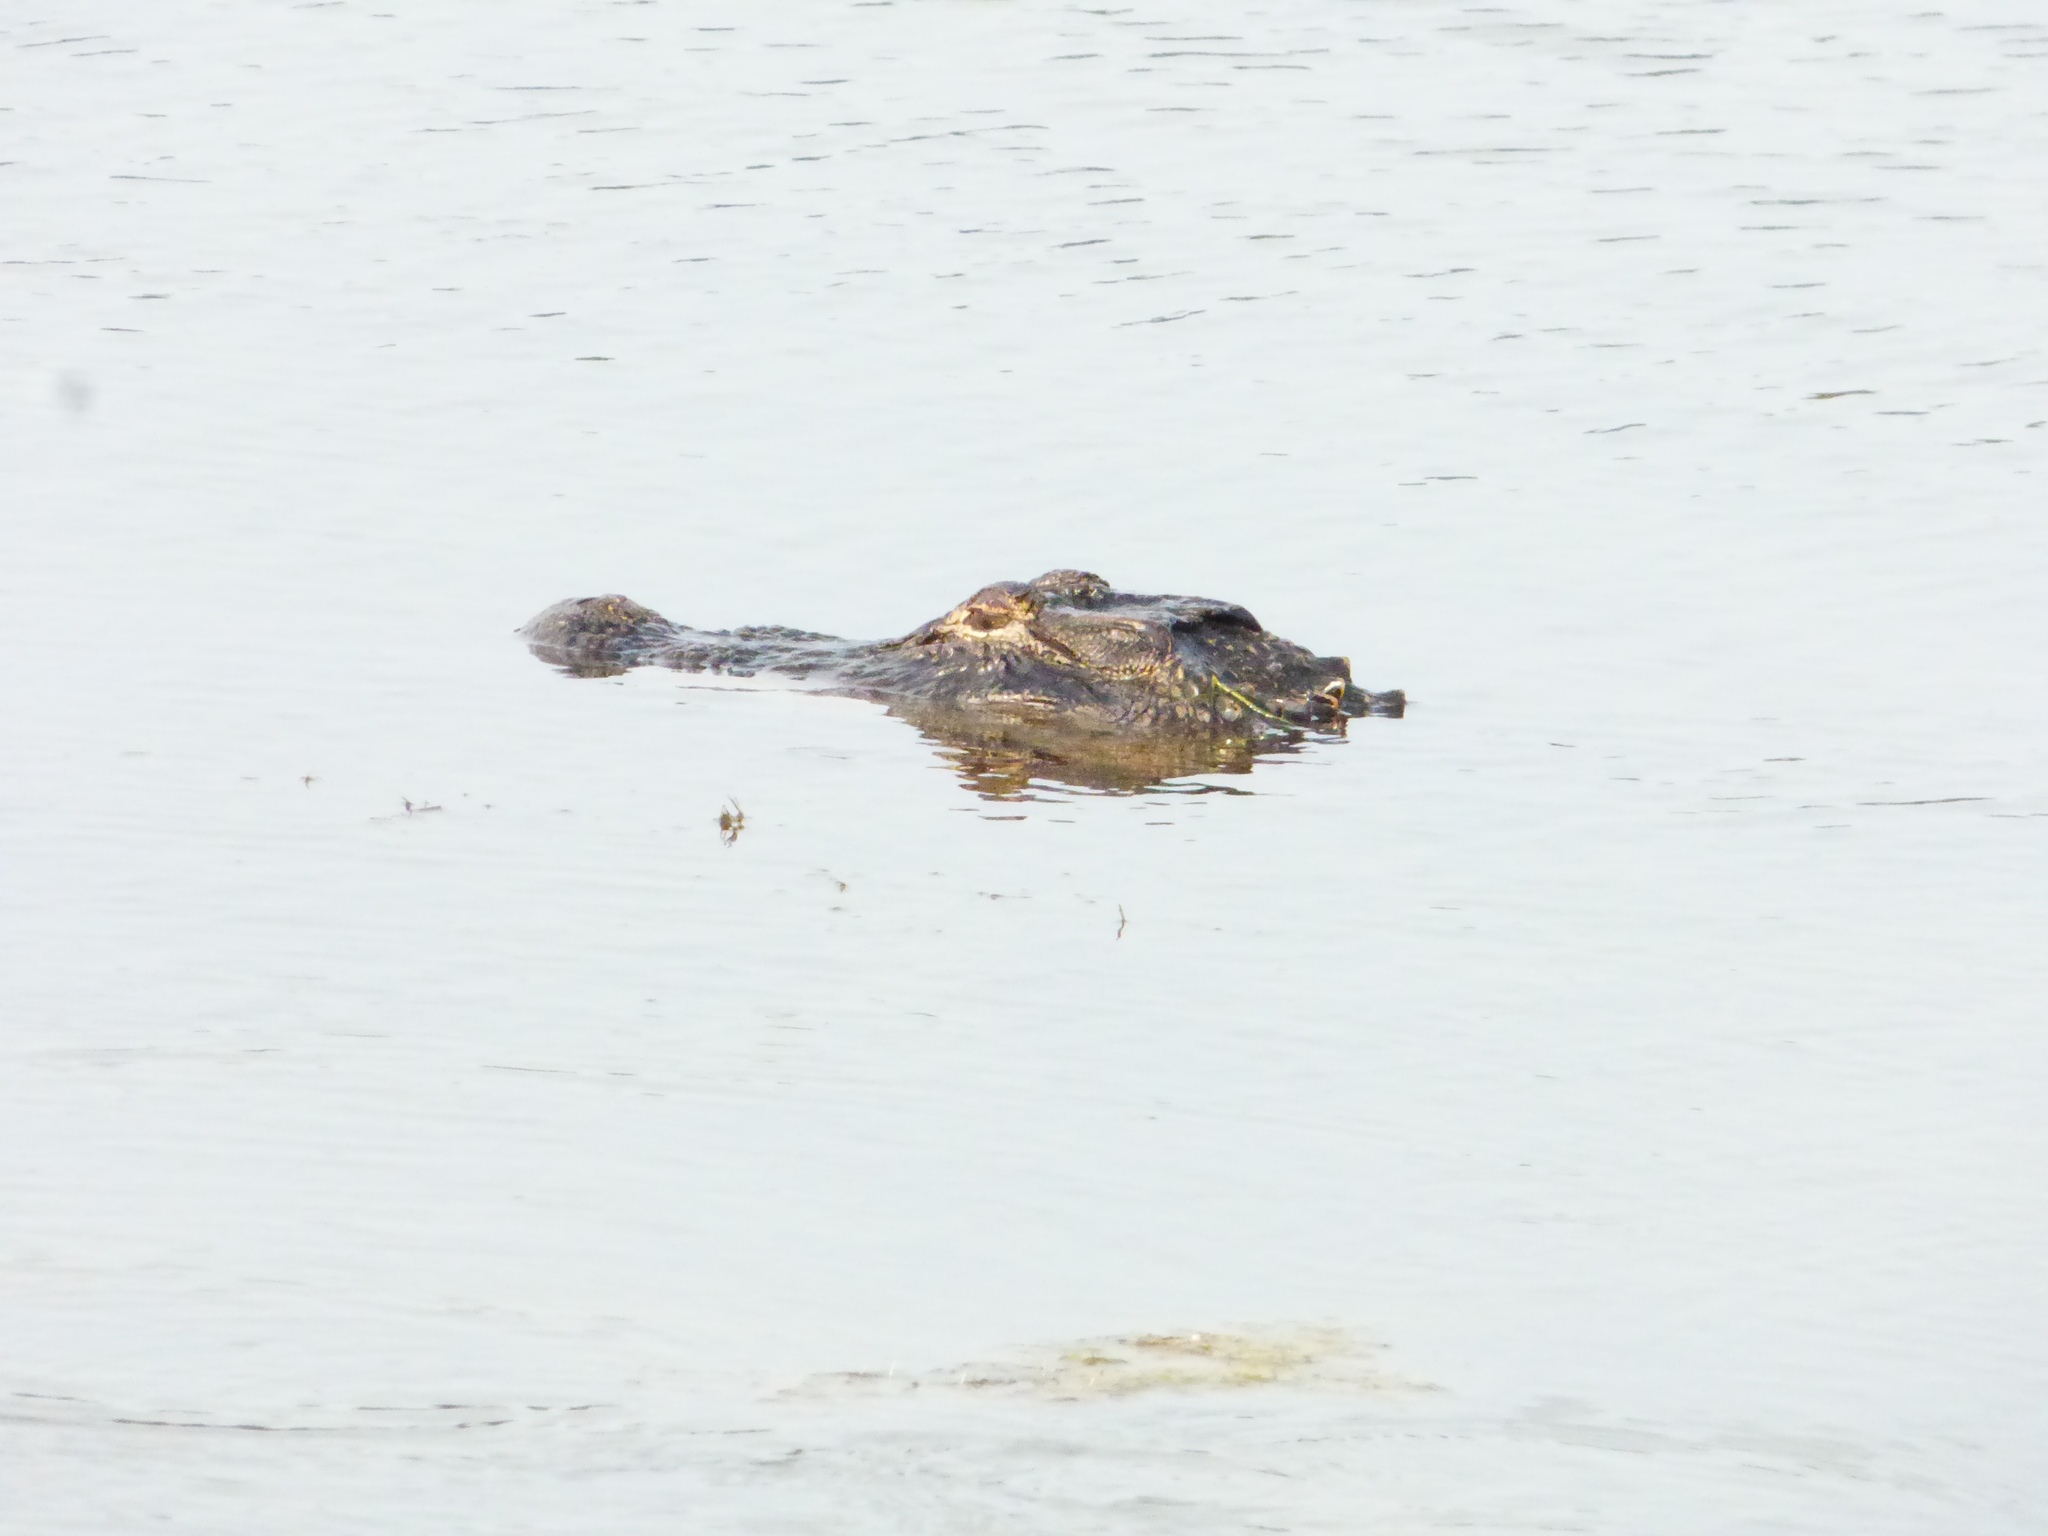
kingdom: Animalia
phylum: Chordata
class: Crocodylia
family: Alligatoridae
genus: Alligator
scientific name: Alligator mississippiensis
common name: American alligator
